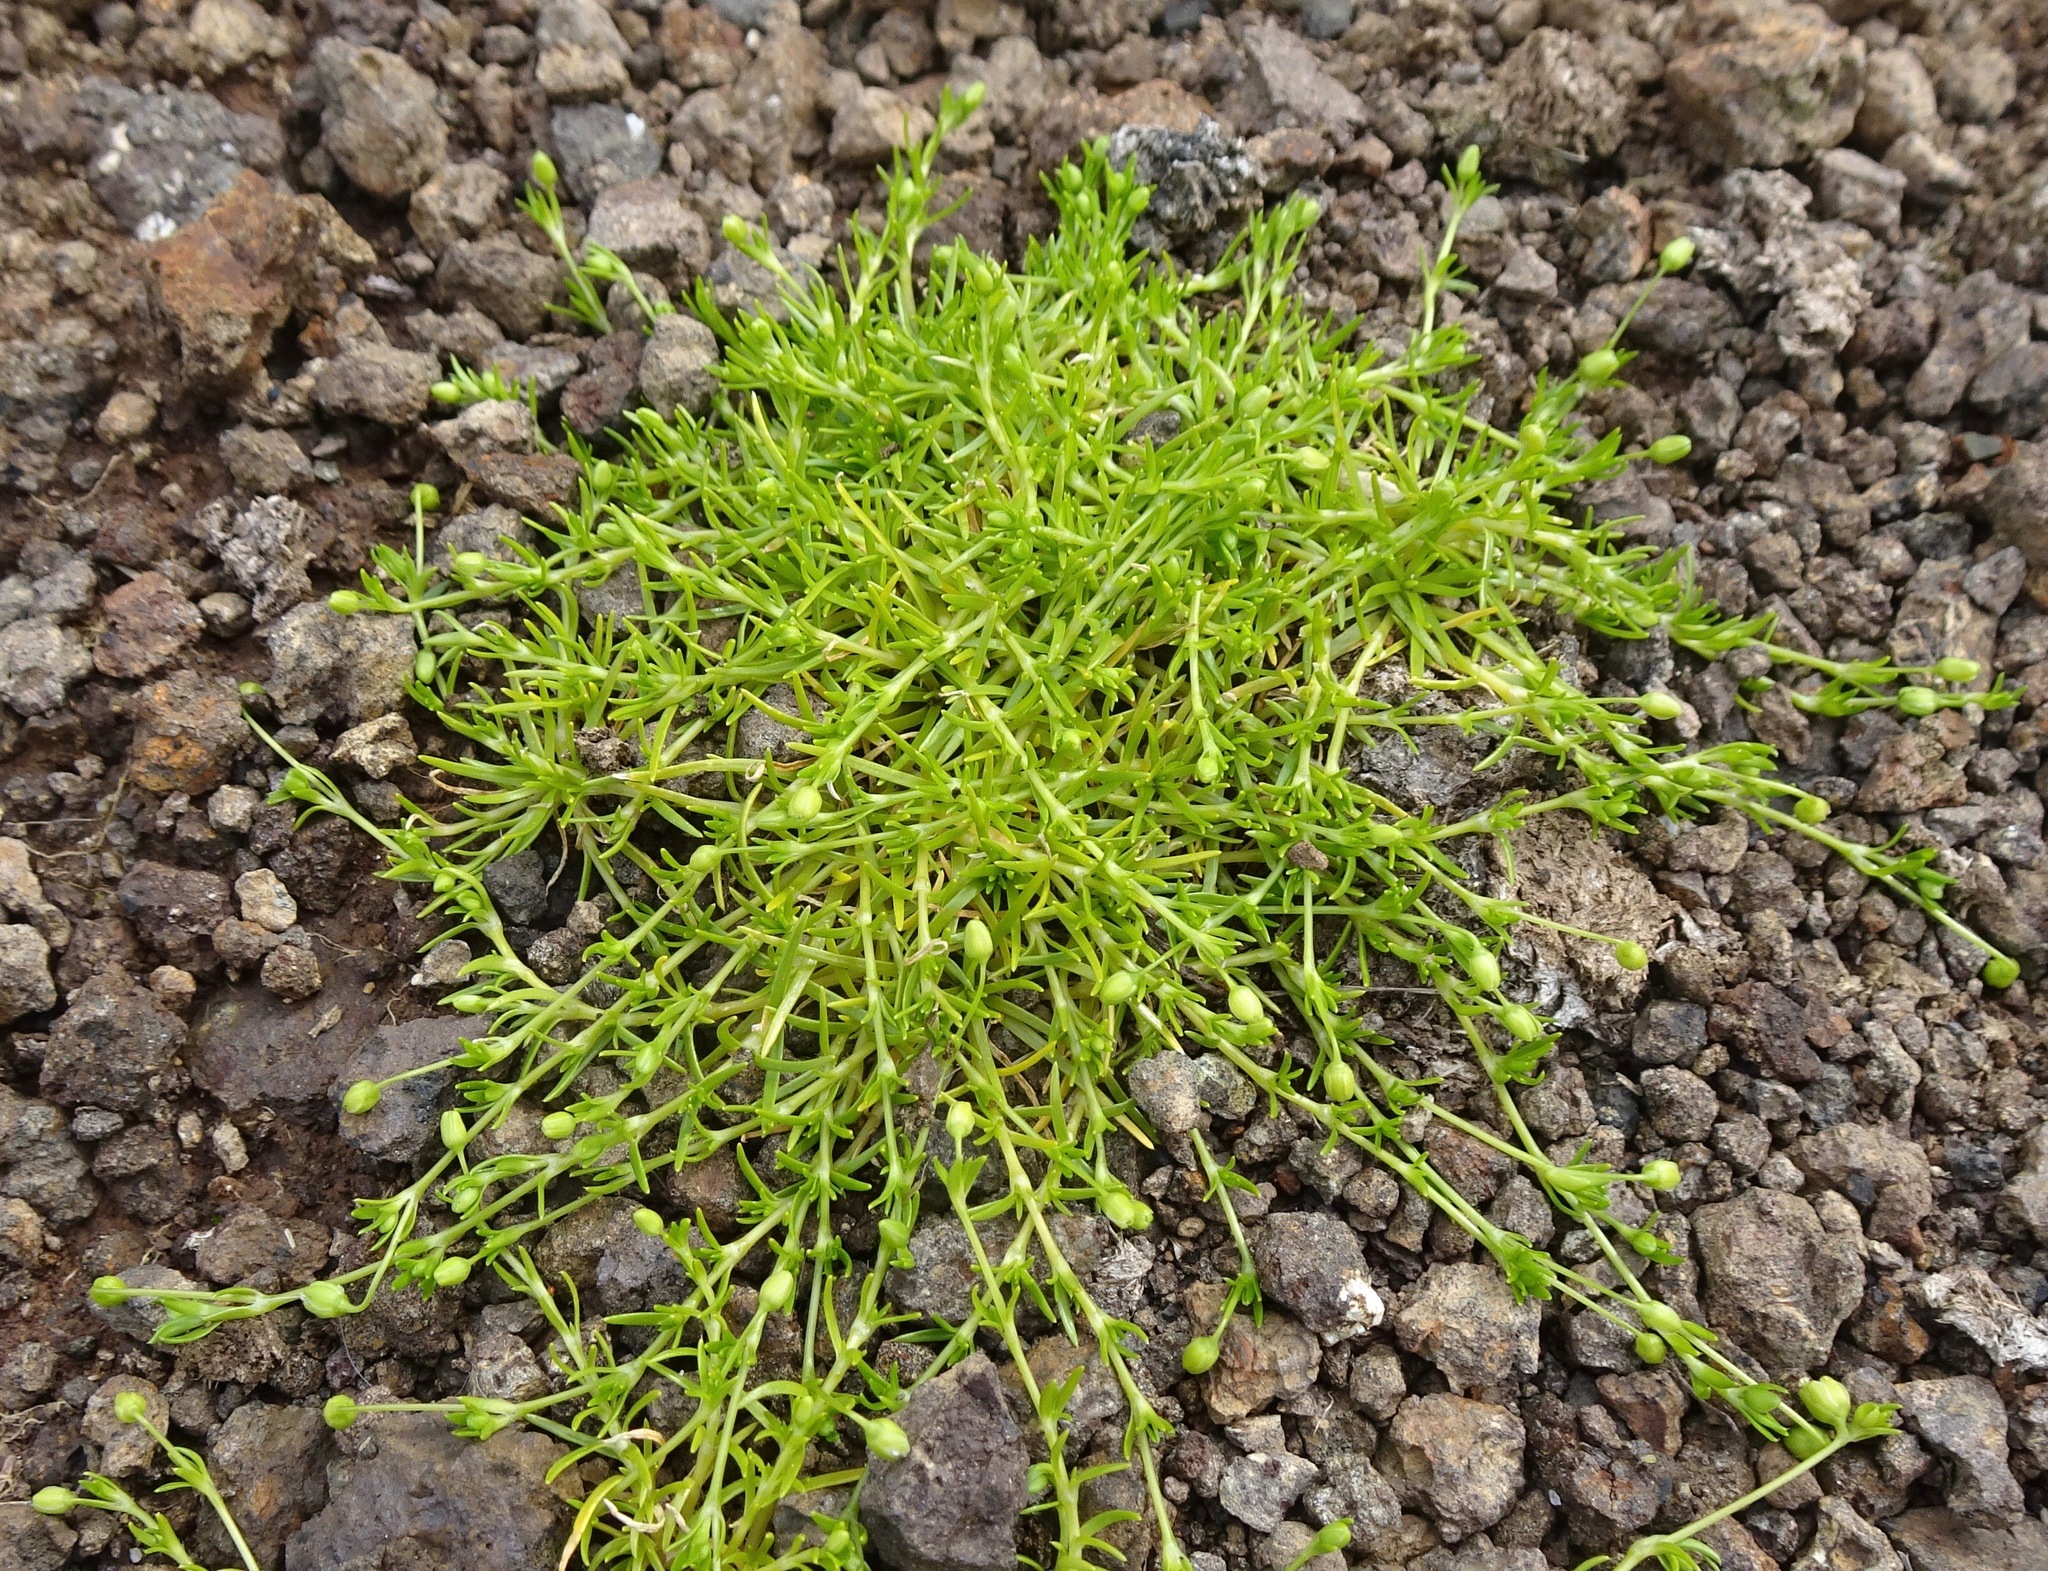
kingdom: Plantae
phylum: Tracheophyta
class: Magnoliopsida
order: Caryophyllales
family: Caryophyllaceae
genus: Sagina
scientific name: Sagina procumbens
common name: Procumbent pearlwort
